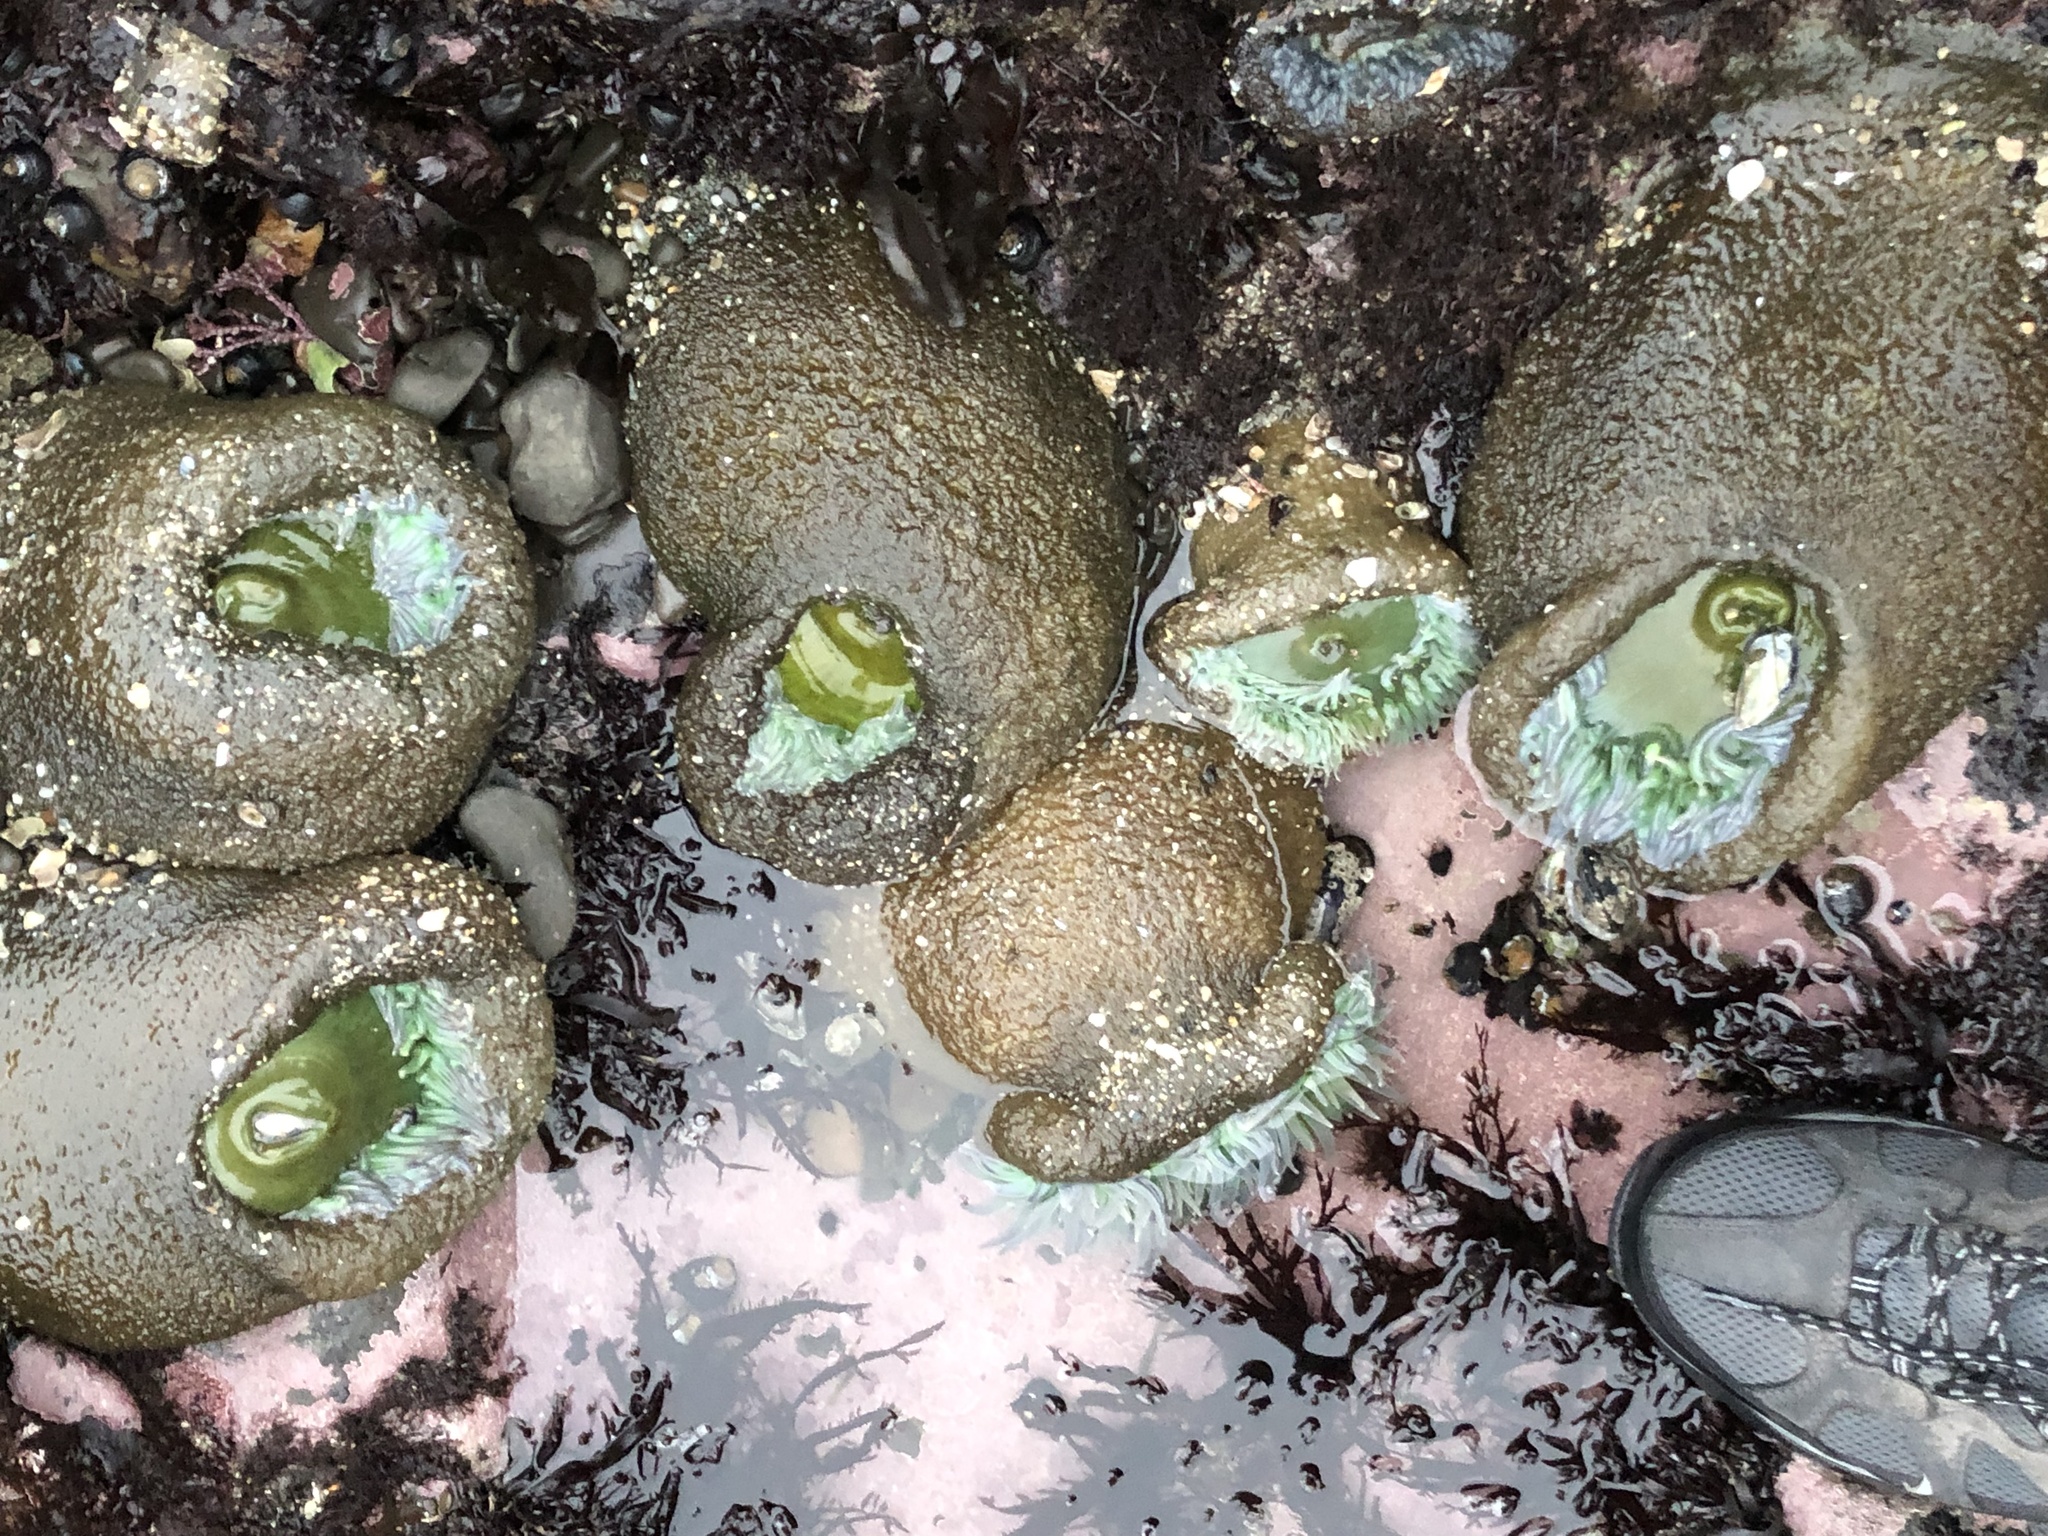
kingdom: Animalia
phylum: Cnidaria
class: Anthozoa
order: Actiniaria
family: Actiniidae
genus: Anthopleura
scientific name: Anthopleura xanthogrammica
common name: Giant green anemone
